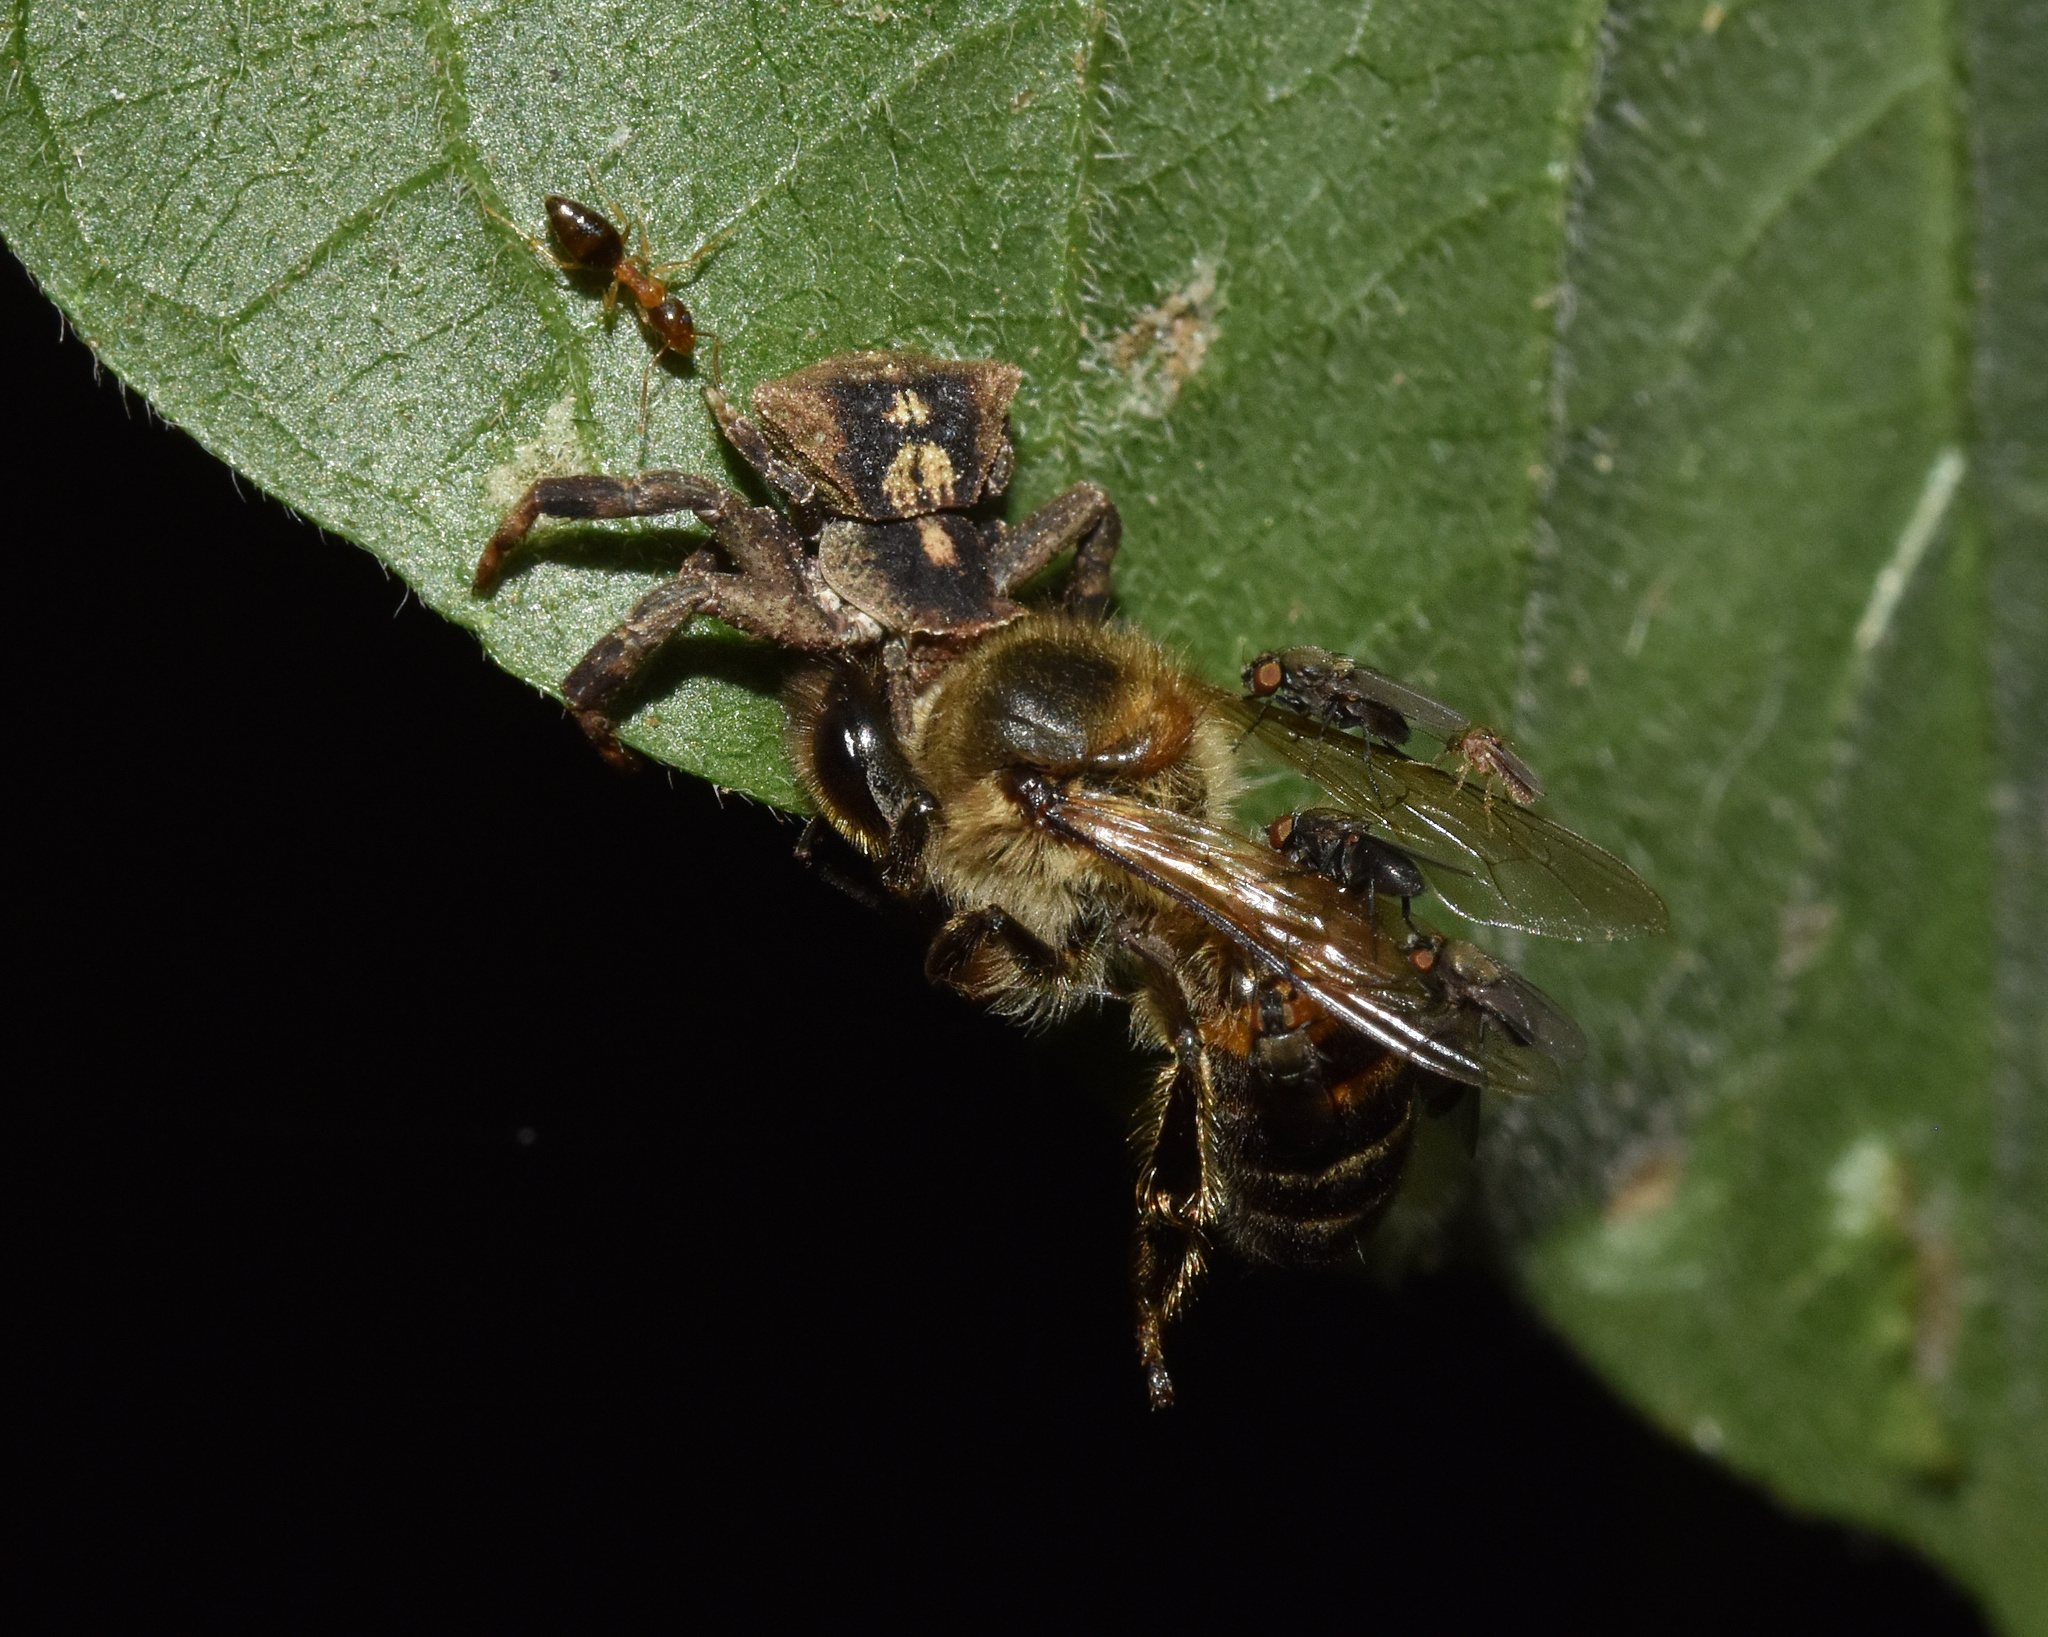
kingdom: Animalia
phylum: Arthropoda
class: Insecta
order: Hymenoptera
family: Apidae
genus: Apis
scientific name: Apis mellifera
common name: Honey bee
